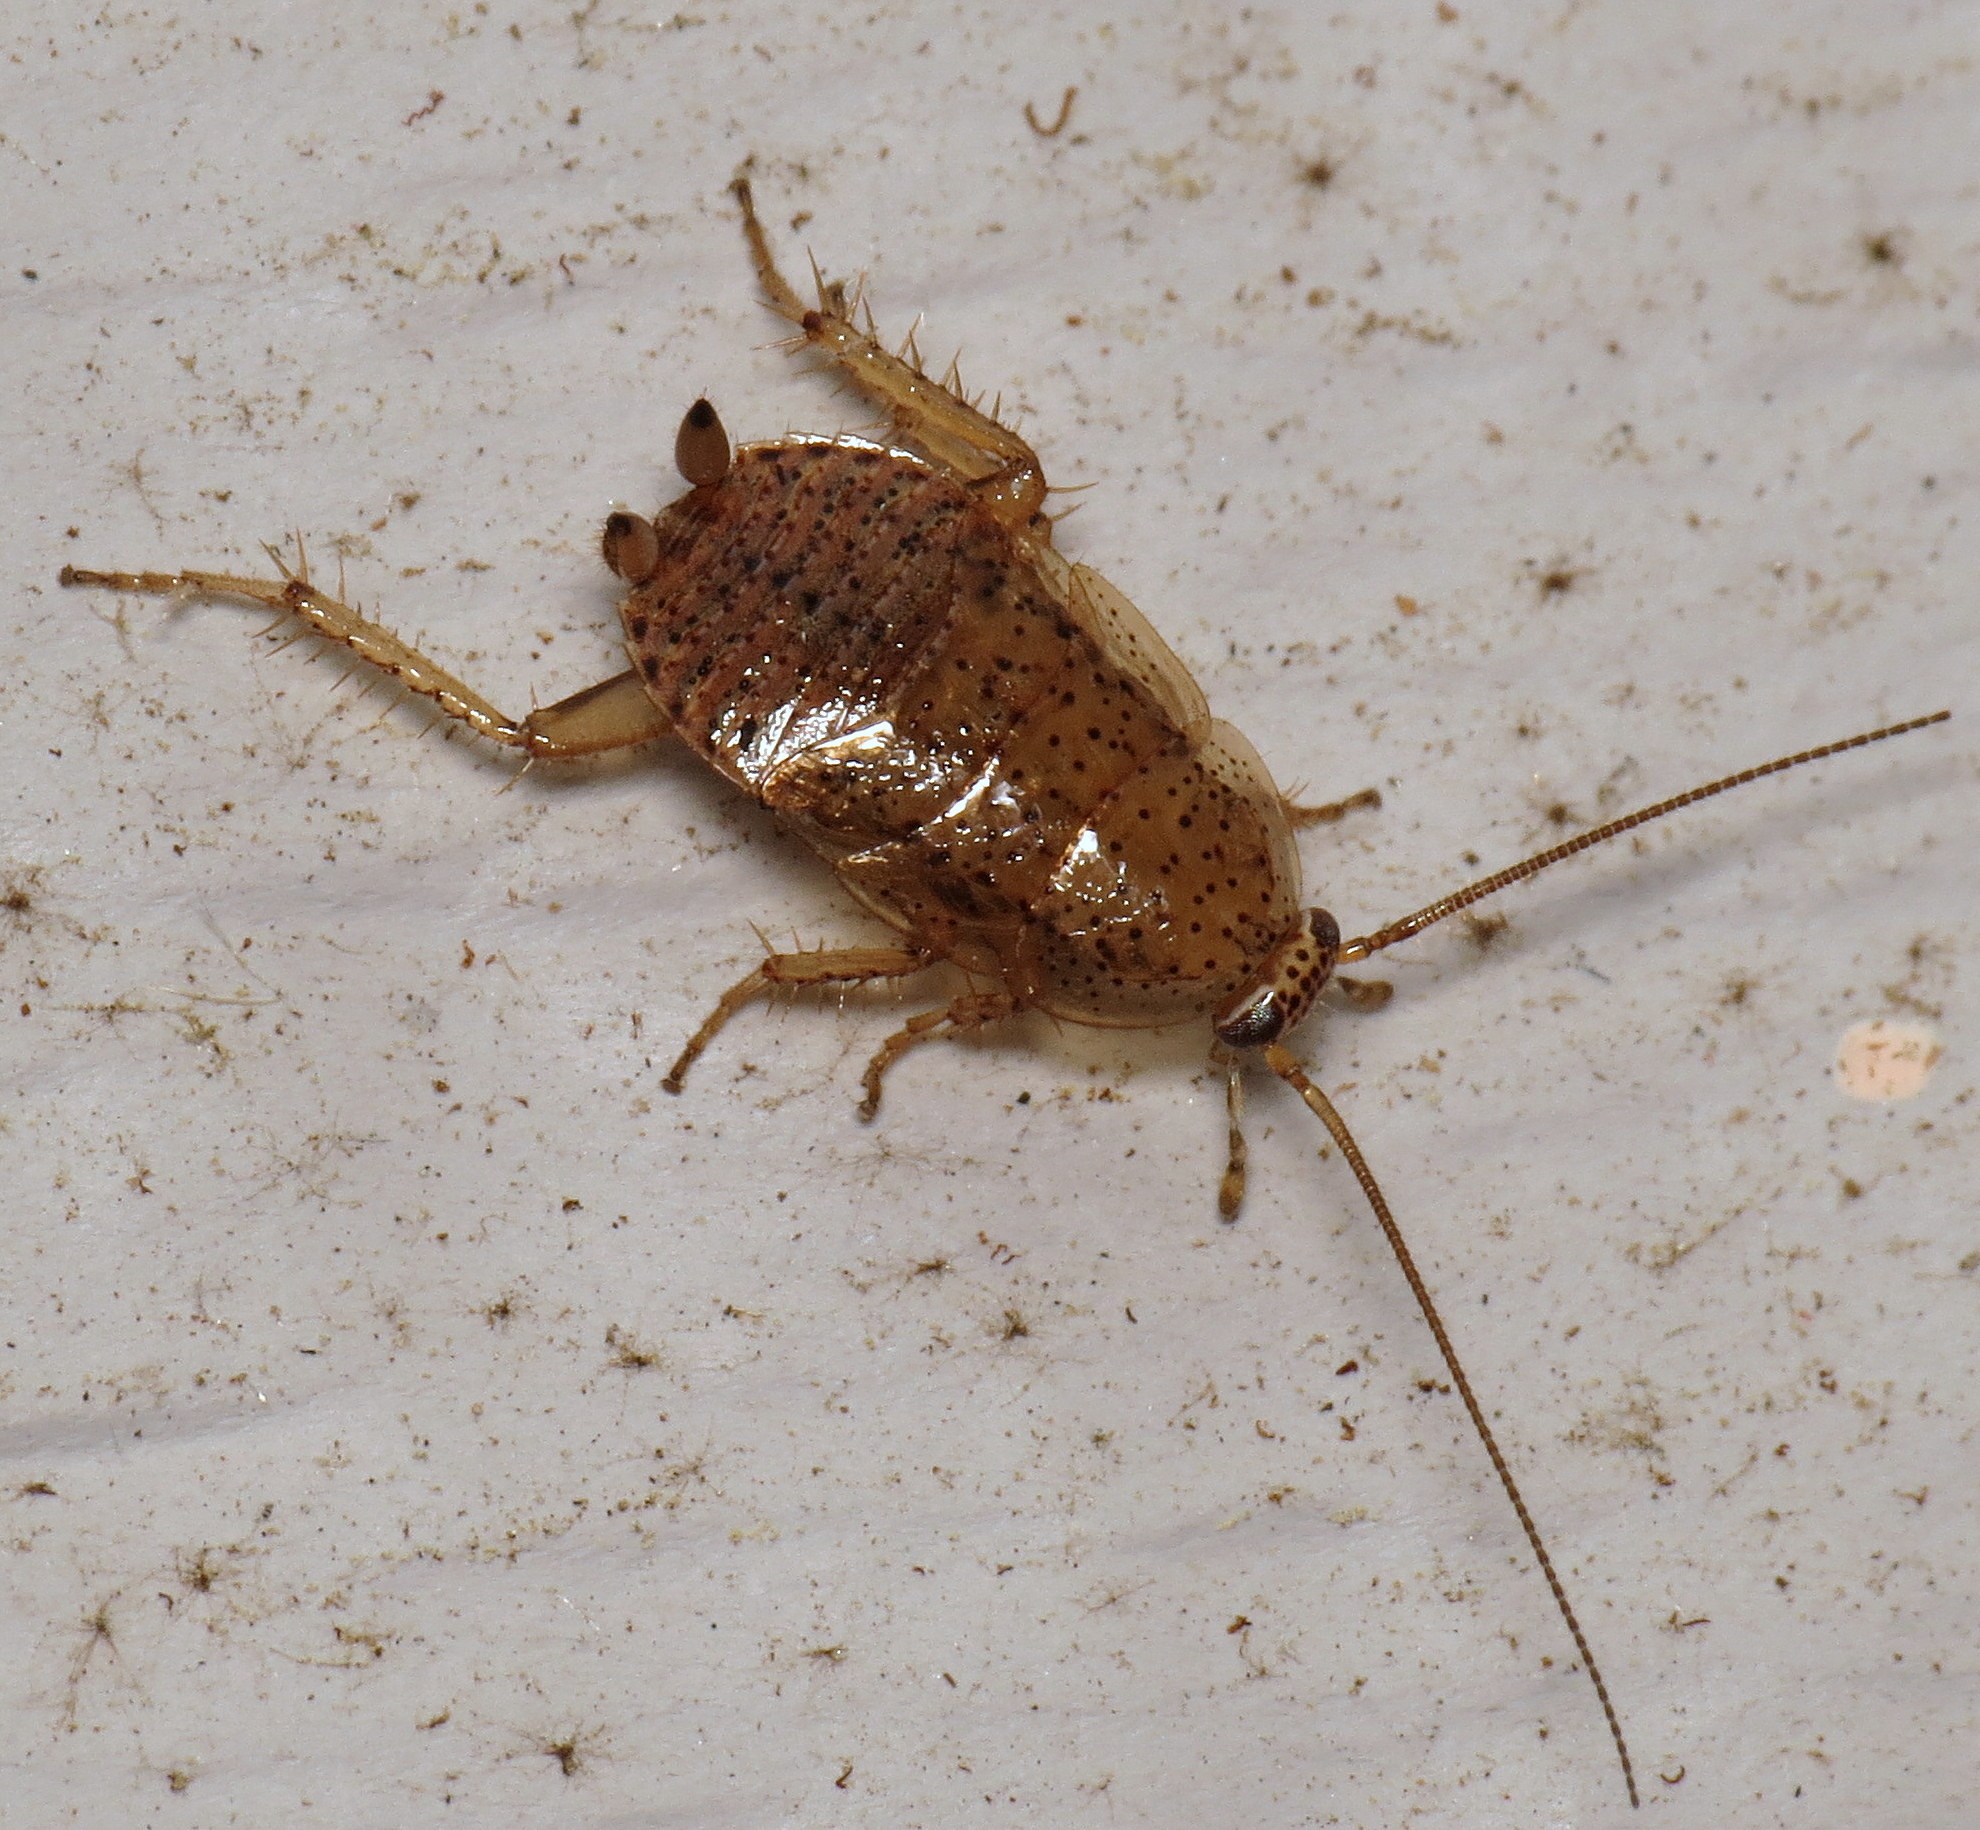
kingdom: Animalia
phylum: Arthropoda
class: Insecta
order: Blattodea
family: Ectobiidae
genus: Ectobius
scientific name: Ectobius pallidus
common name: Tawny cockroach
